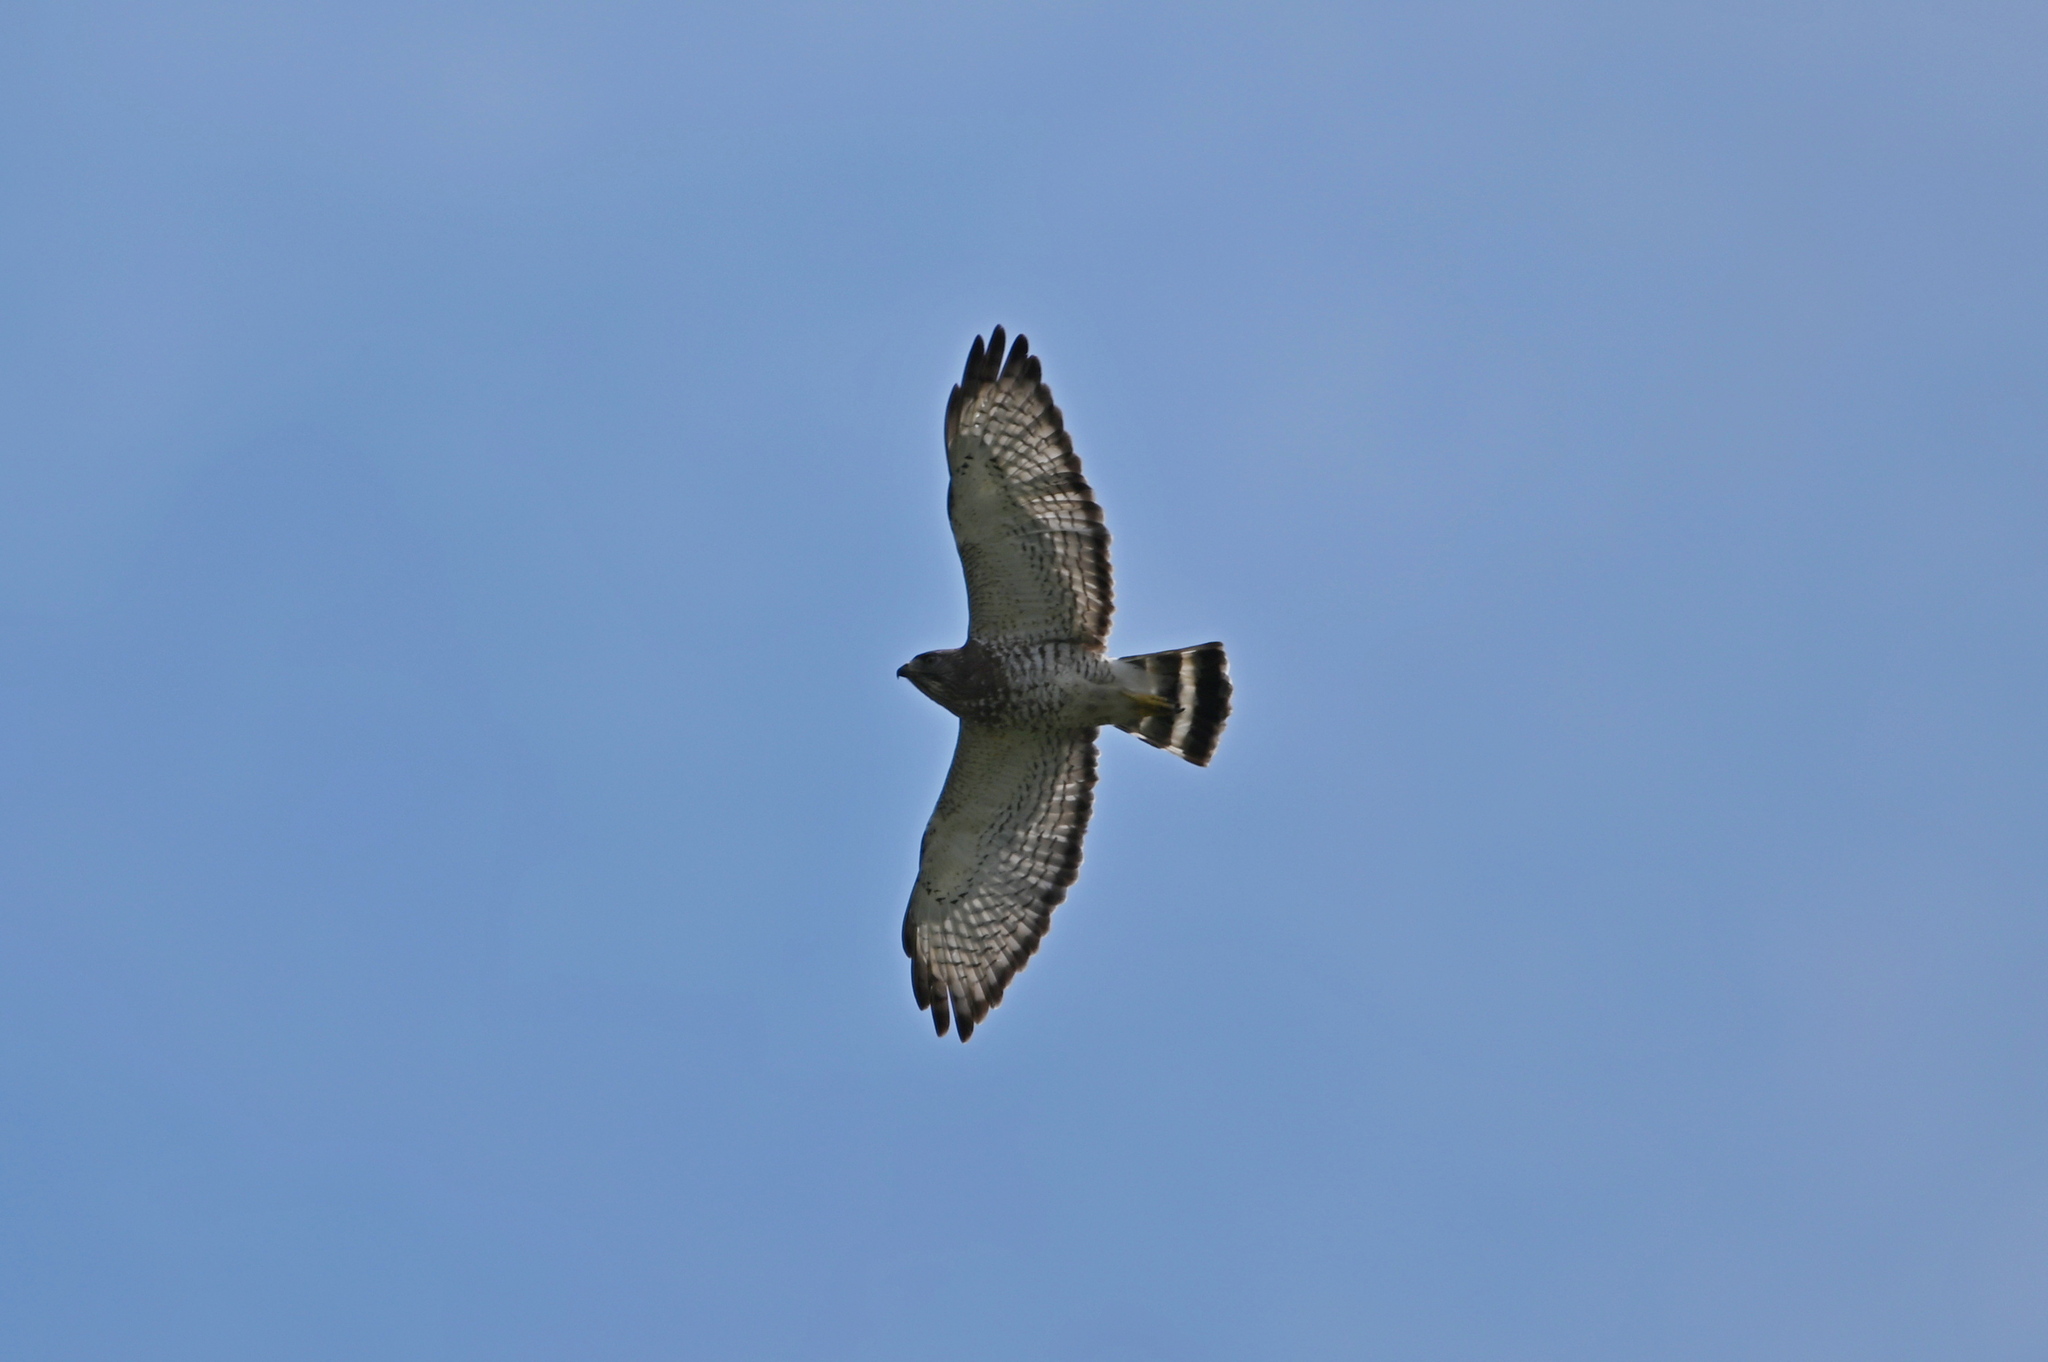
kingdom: Animalia
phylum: Chordata
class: Aves
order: Accipitriformes
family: Accipitridae
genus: Buteo
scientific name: Buteo platypterus
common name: Broad-winged hawk
